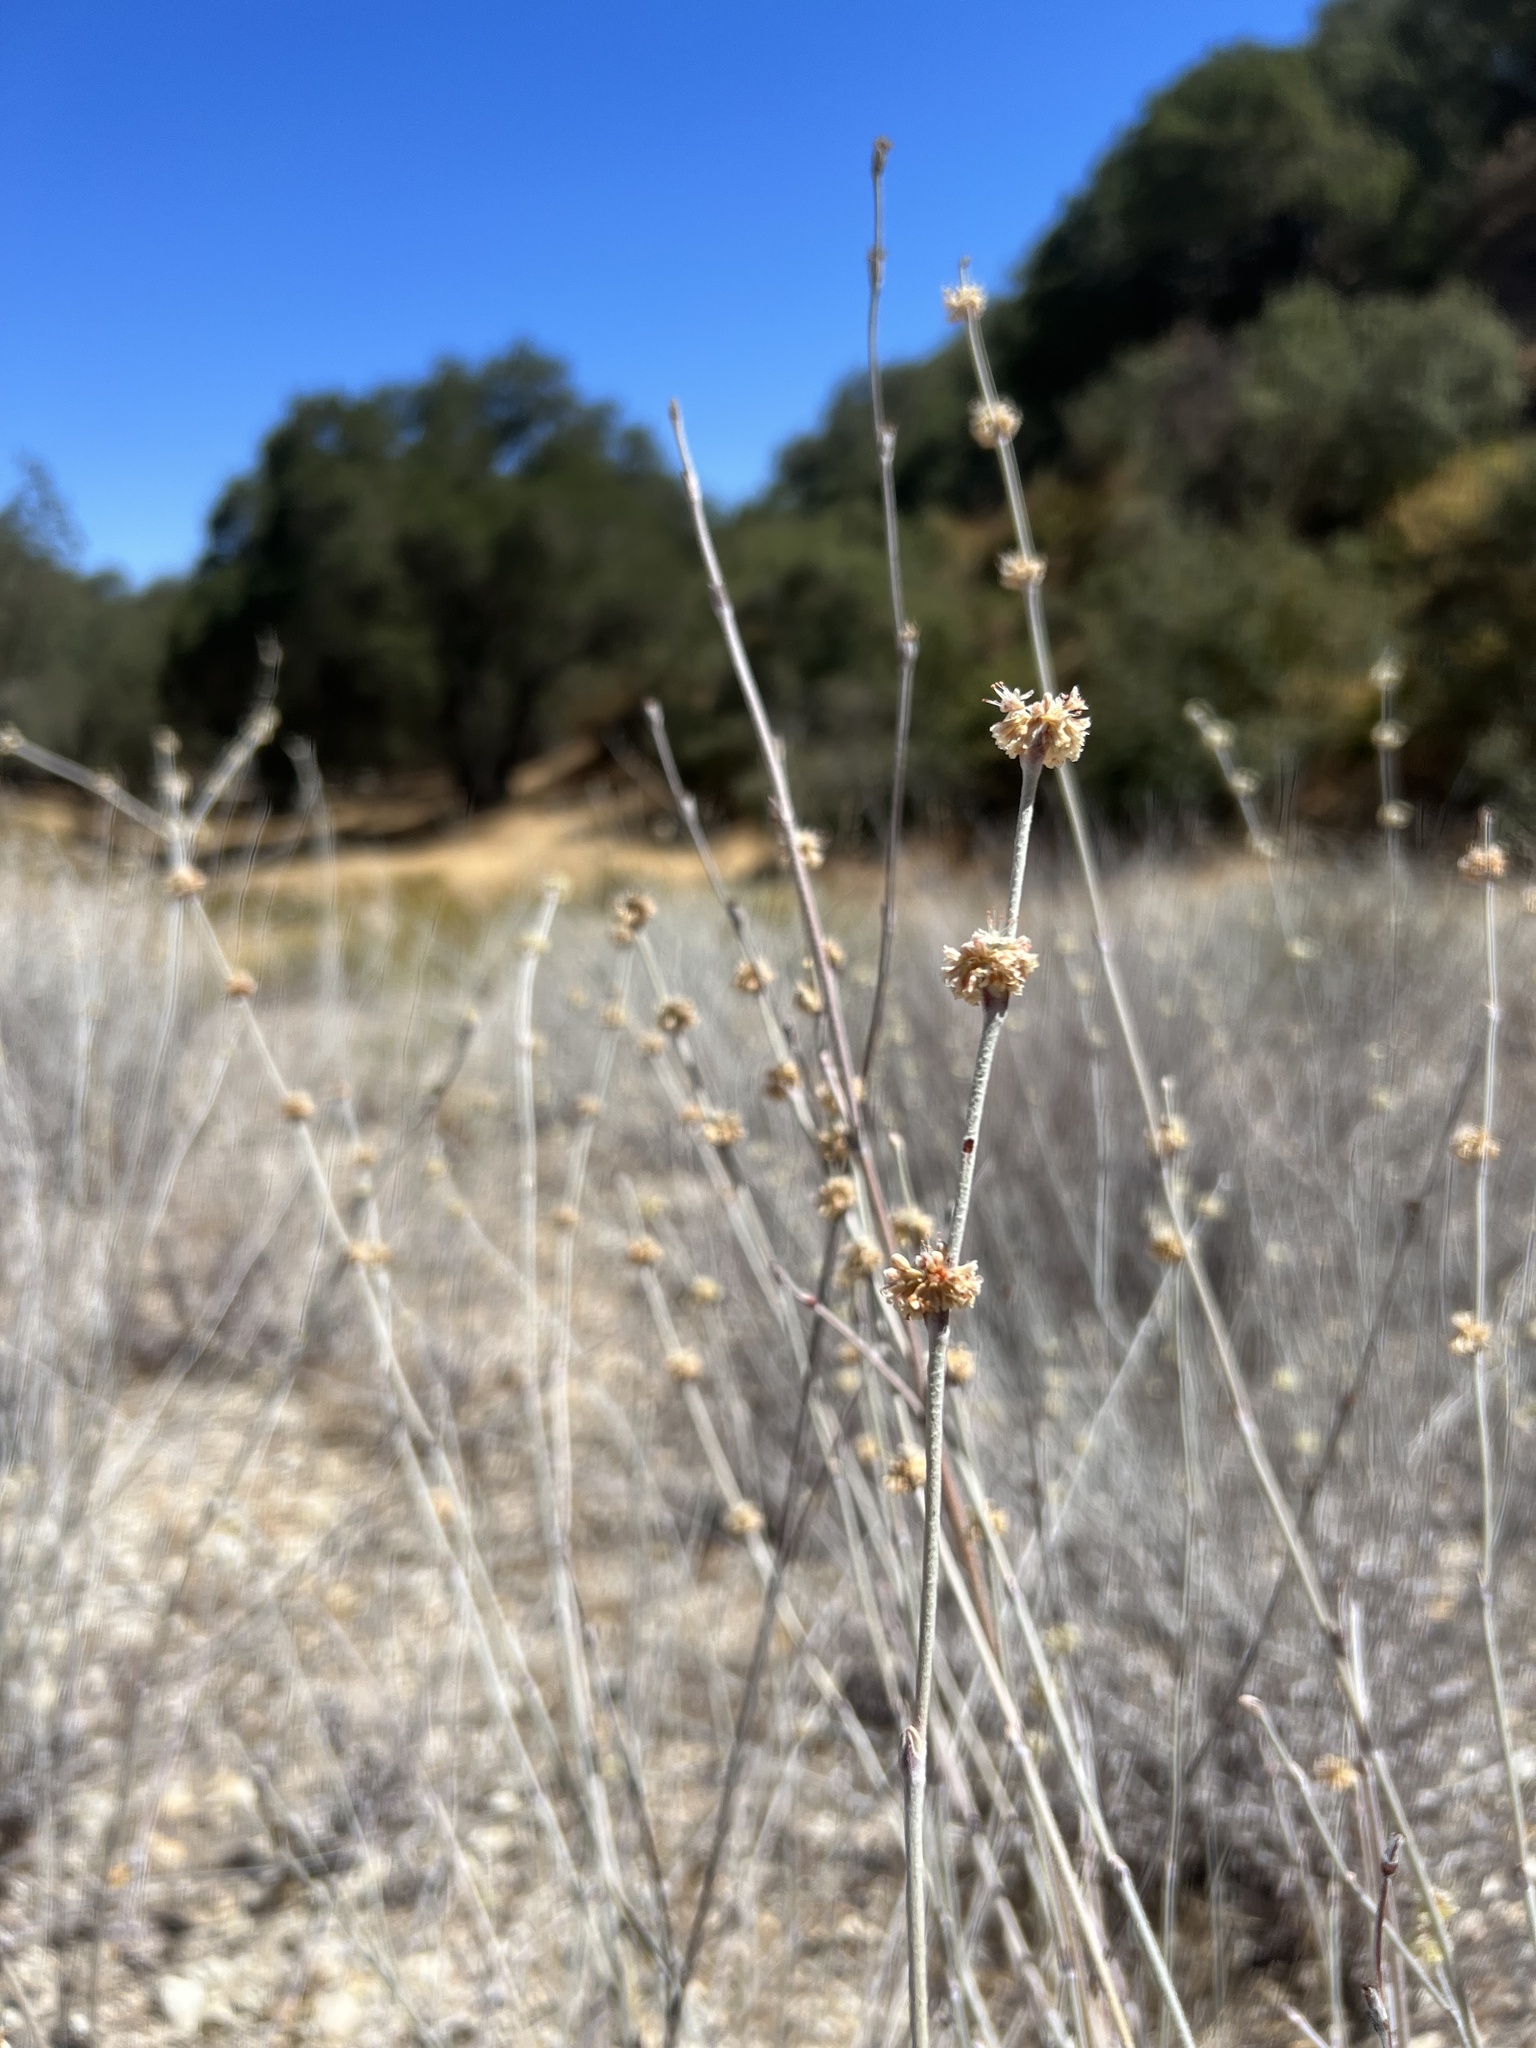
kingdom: Plantae
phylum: Tracheophyta
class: Magnoliopsida
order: Caryophyllales
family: Polygonaceae
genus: Eriogonum
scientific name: Eriogonum elongatum
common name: Long-stem wild buckwheat
